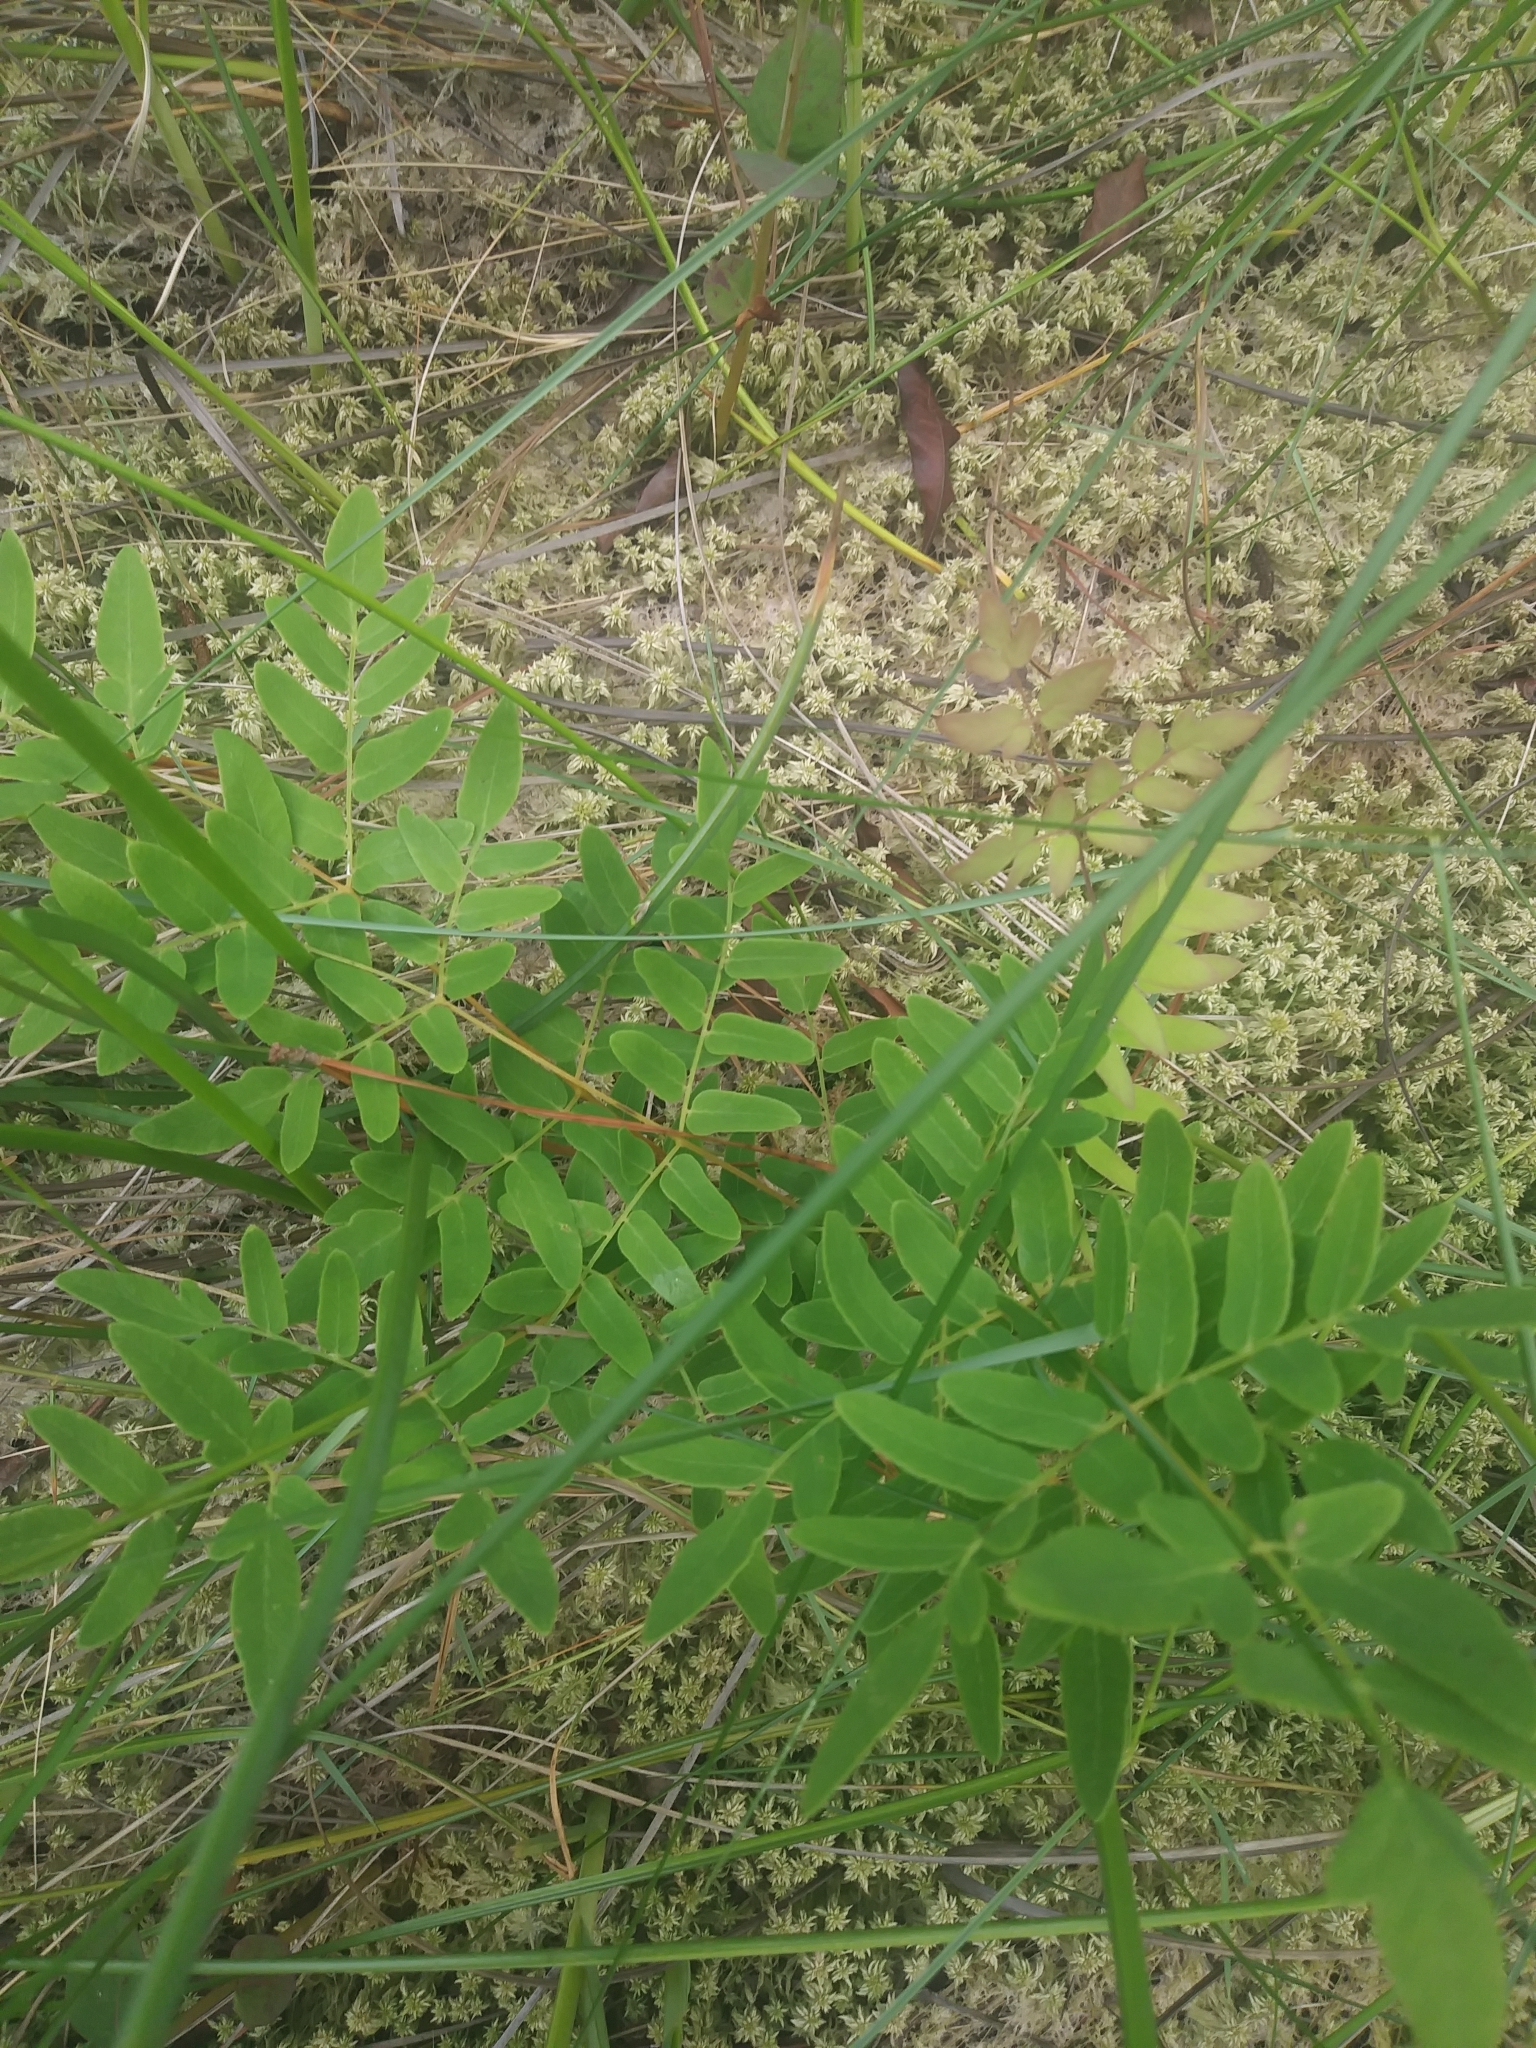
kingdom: Plantae
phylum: Tracheophyta
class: Polypodiopsida
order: Osmundales
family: Osmundaceae
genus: Osmunda
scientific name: Osmunda spectabilis
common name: American royal fern
